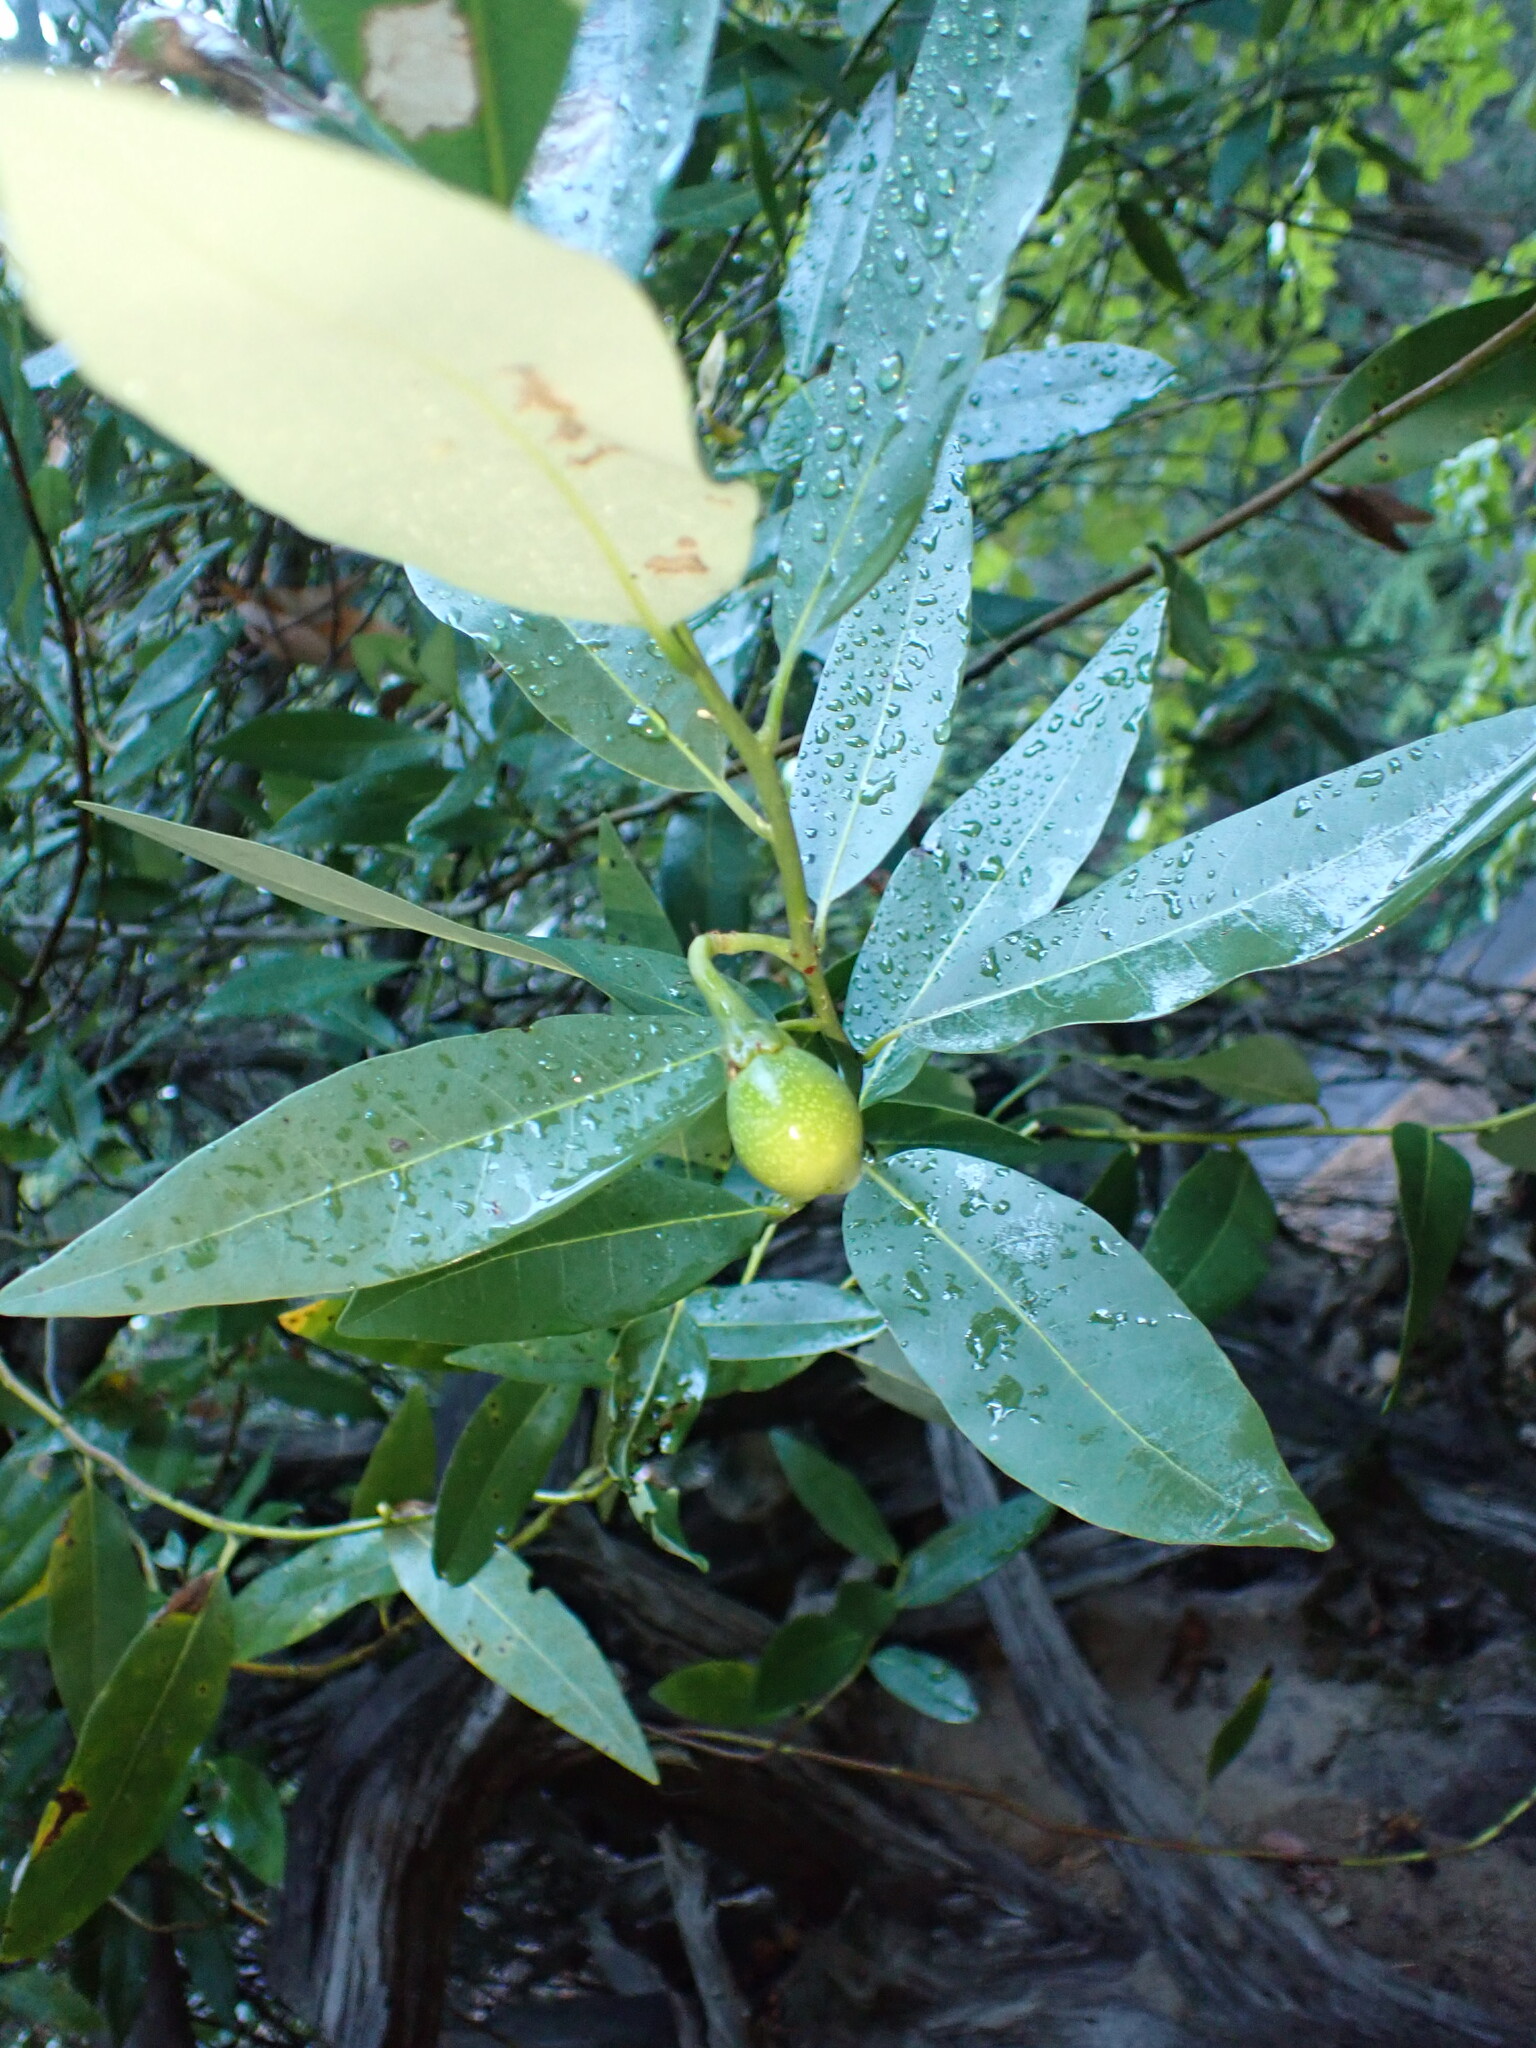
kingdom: Plantae
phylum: Tracheophyta
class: Magnoliopsida
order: Laurales
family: Lauraceae
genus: Umbellularia
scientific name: Umbellularia californica
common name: California bay
